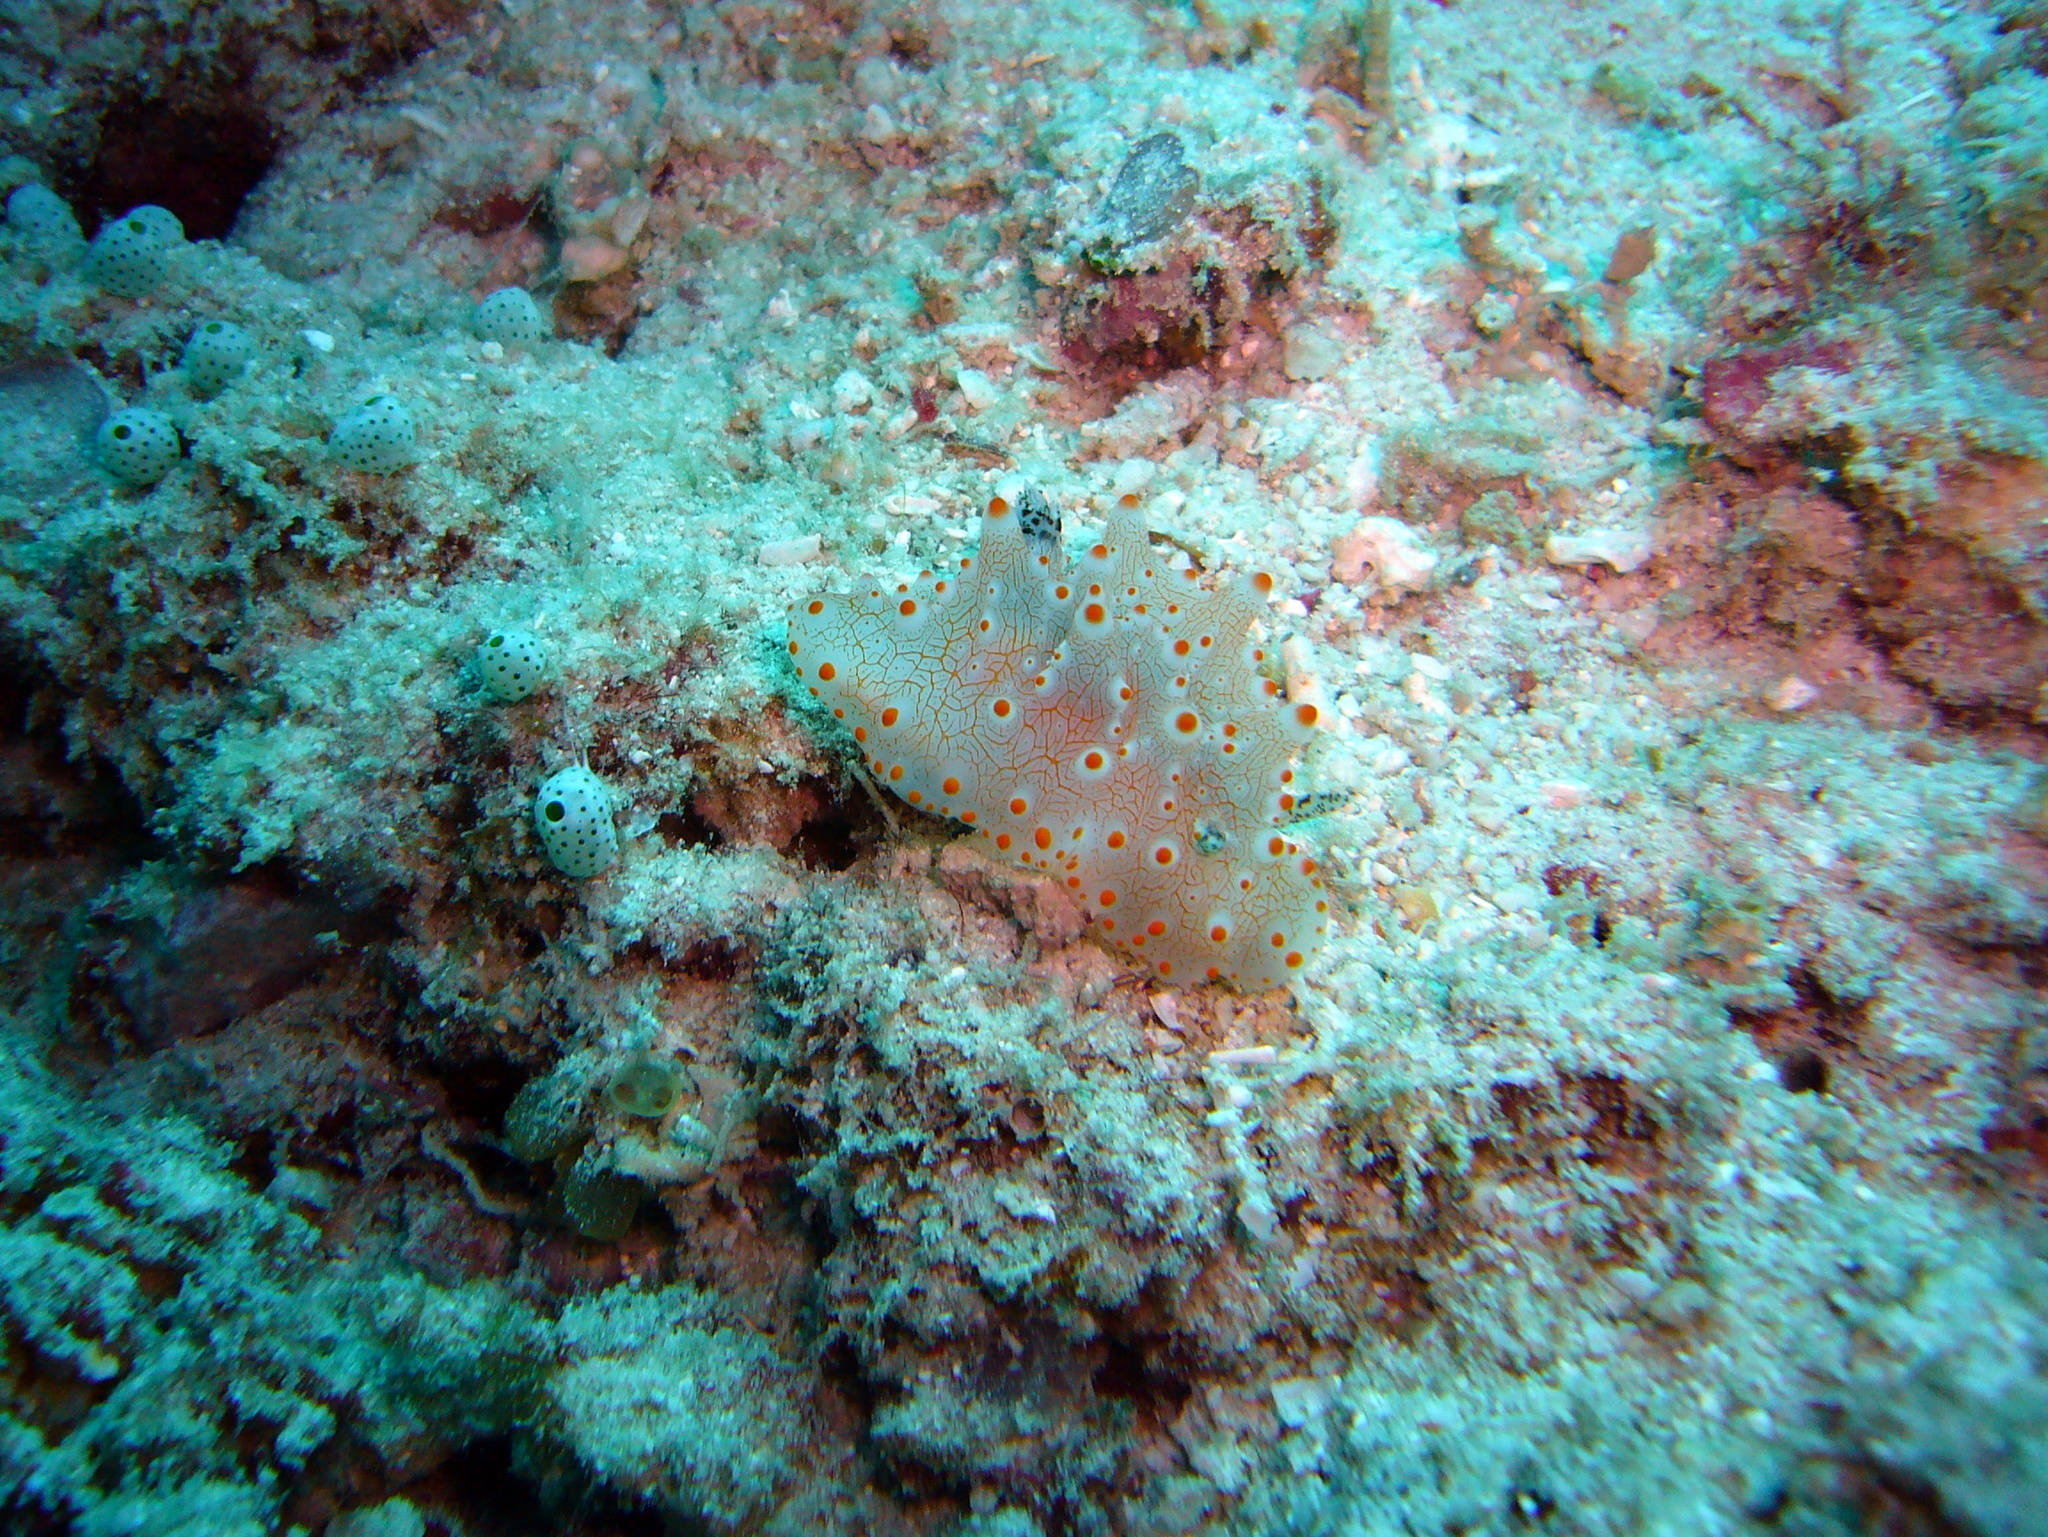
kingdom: Animalia
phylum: Mollusca
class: Gastropoda
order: Nudibranchia
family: Discodorididae
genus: Halgerda
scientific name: Halgerda batangas
